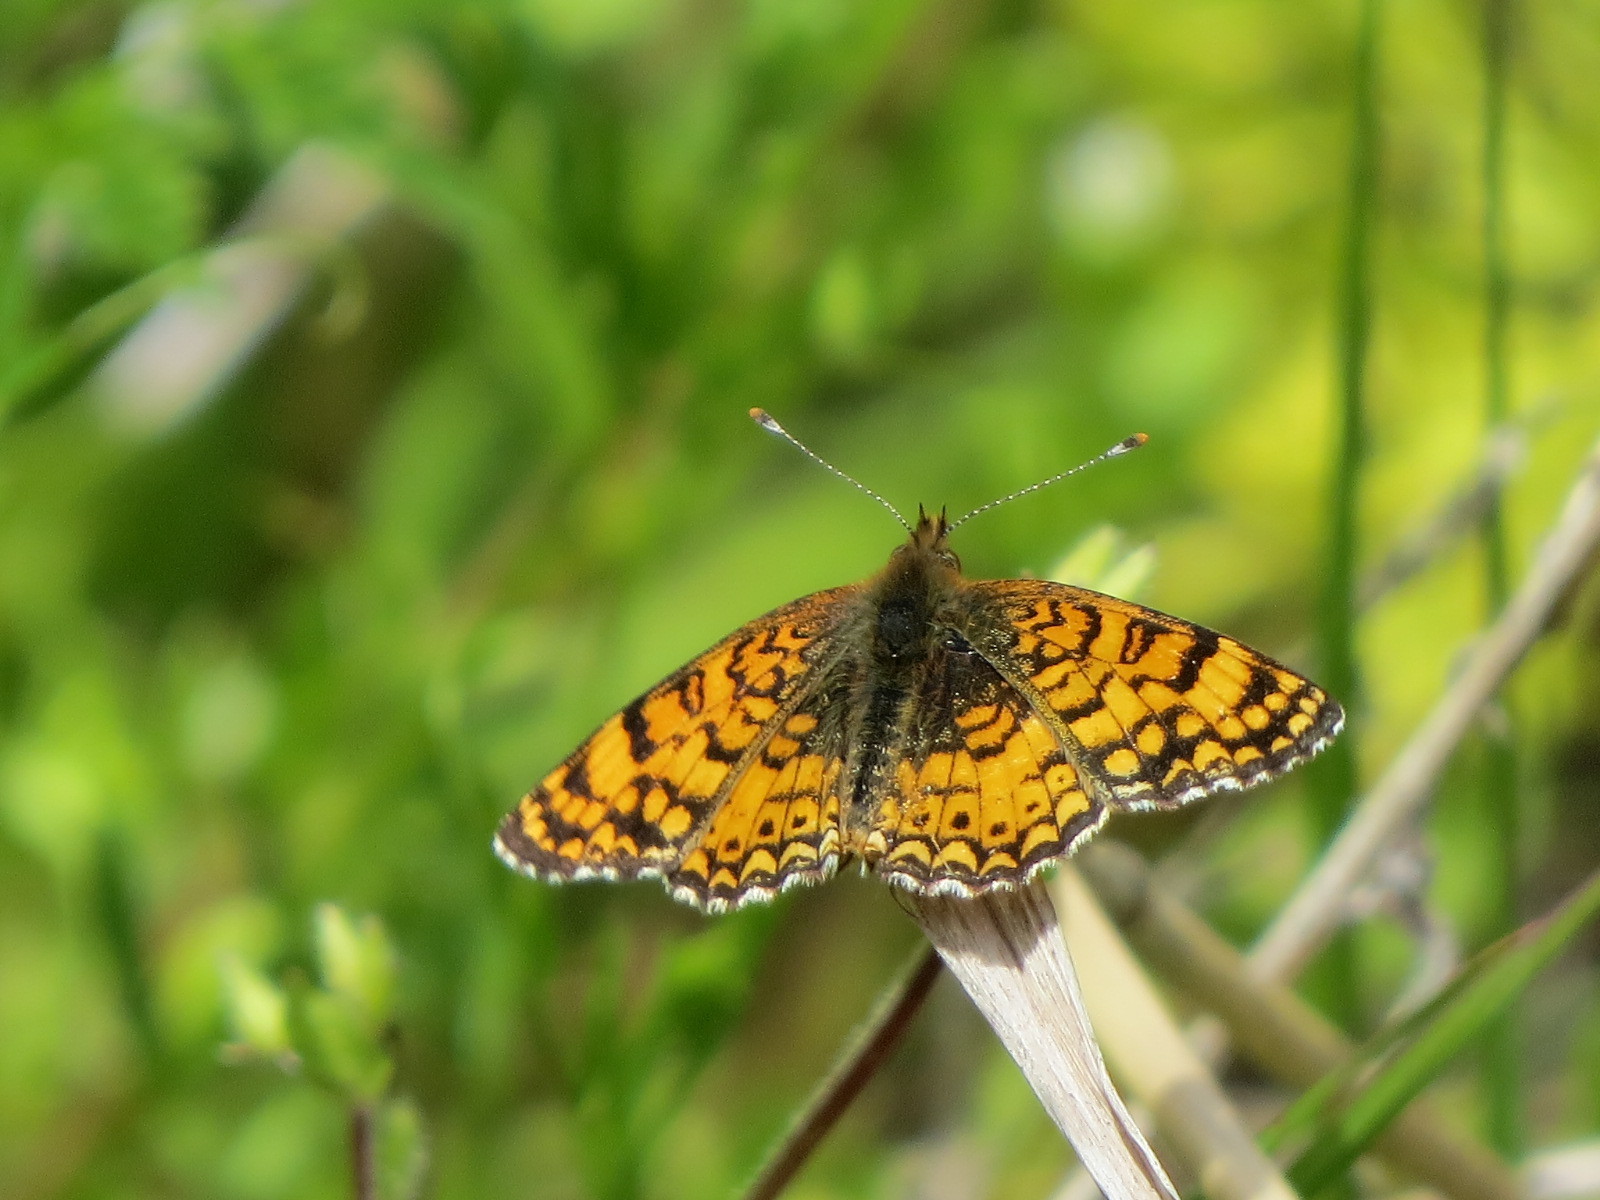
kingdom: Animalia
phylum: Arthropoda
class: Insecta
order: Lepidoptera
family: Nymphalidae
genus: Eresia
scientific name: Eresia aveyrona
